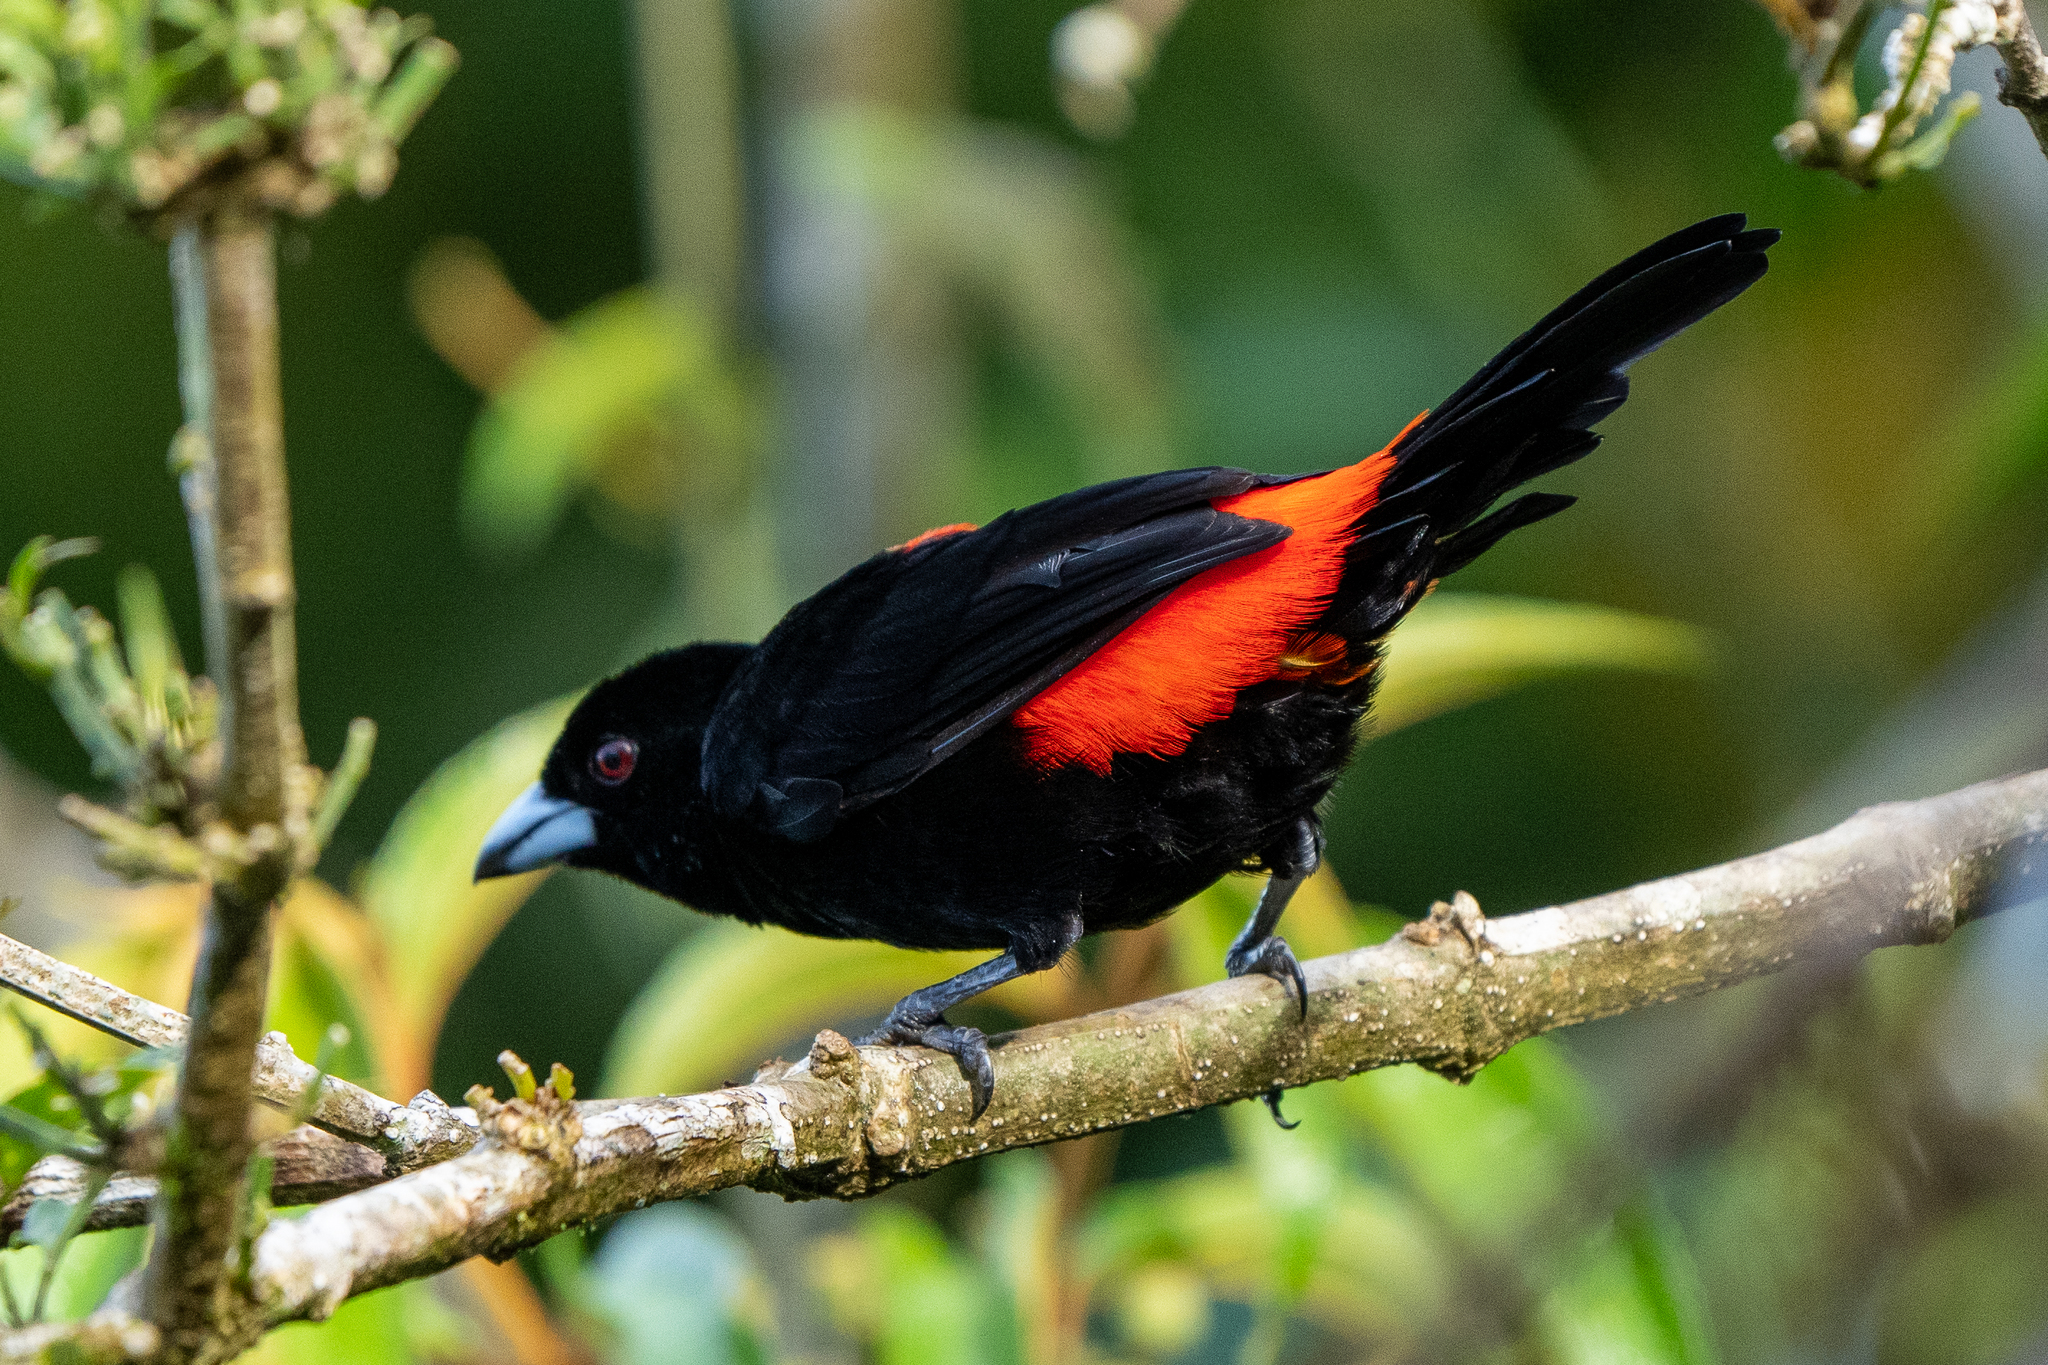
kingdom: Animalia
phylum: Chordata
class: Aves
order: Passeriformes
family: Thraupidae
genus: Ramphocelus
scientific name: Ramphocelus passerinii
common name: Passerini's tanager
